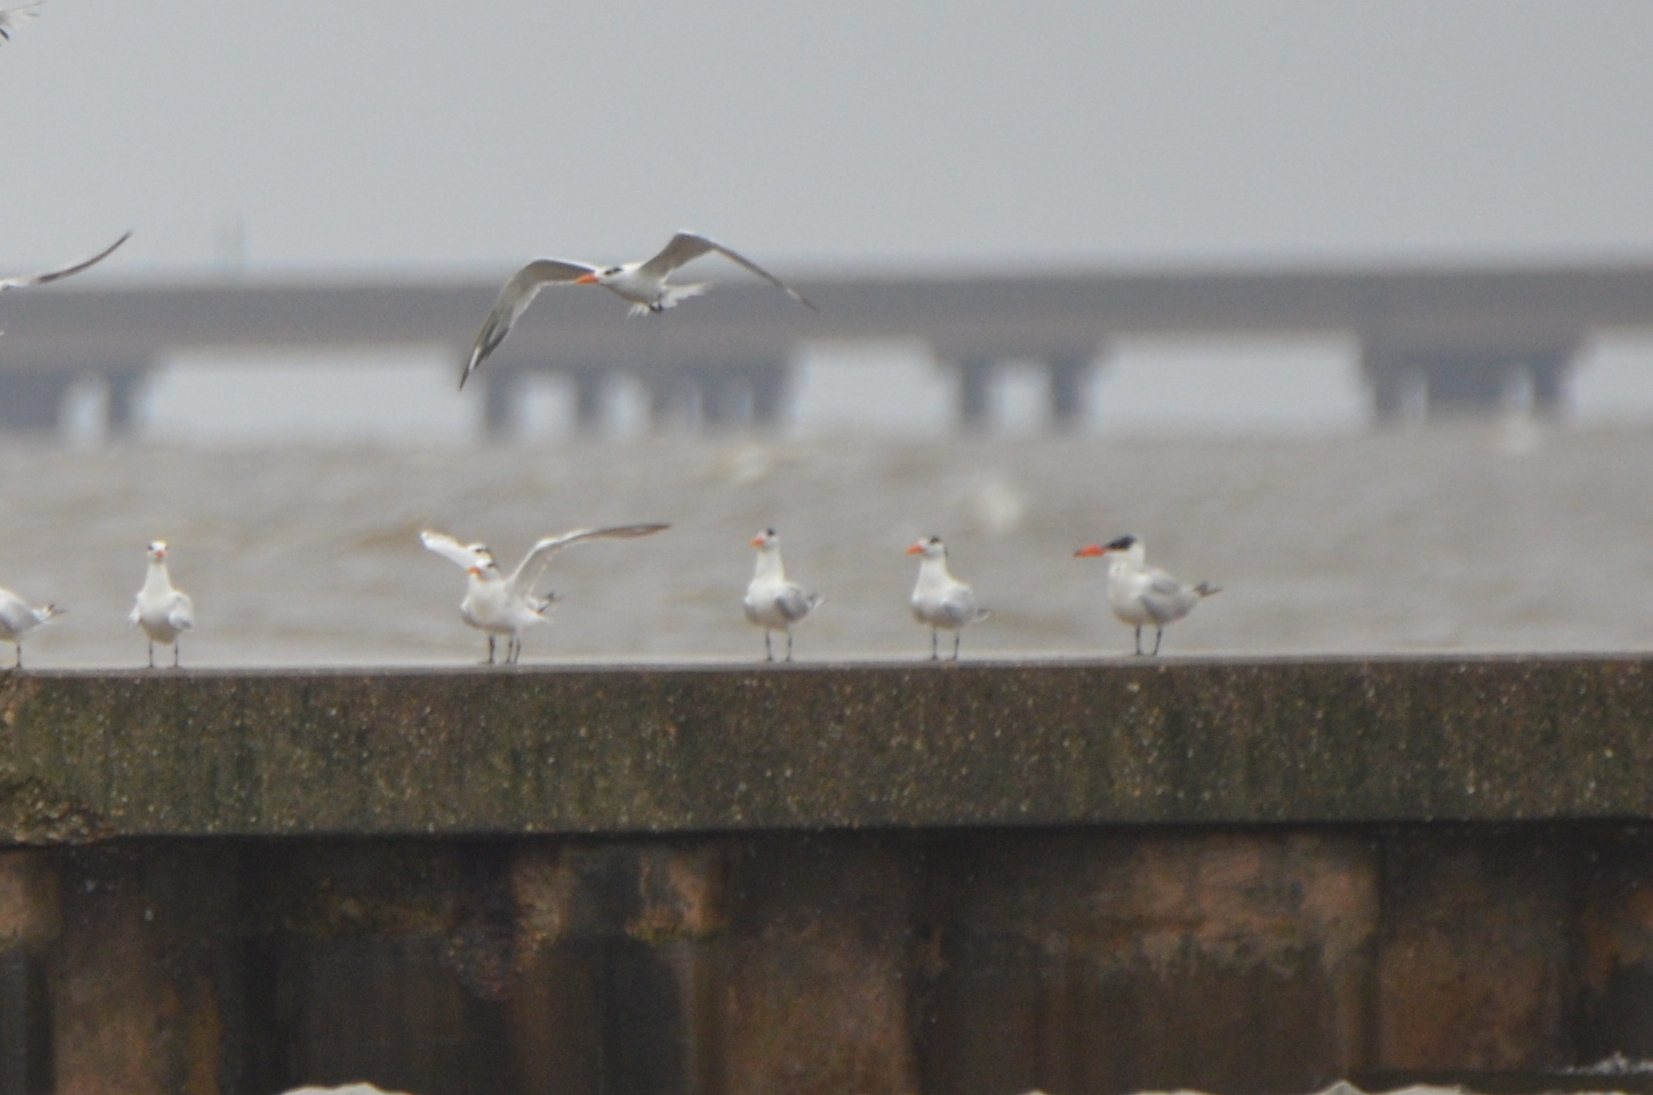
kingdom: Animalia
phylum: Chordata
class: Aves
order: Charadriiformes
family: Laridae
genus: Hydroprogne
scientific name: Hydroprogne caspia
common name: Caspian tern
